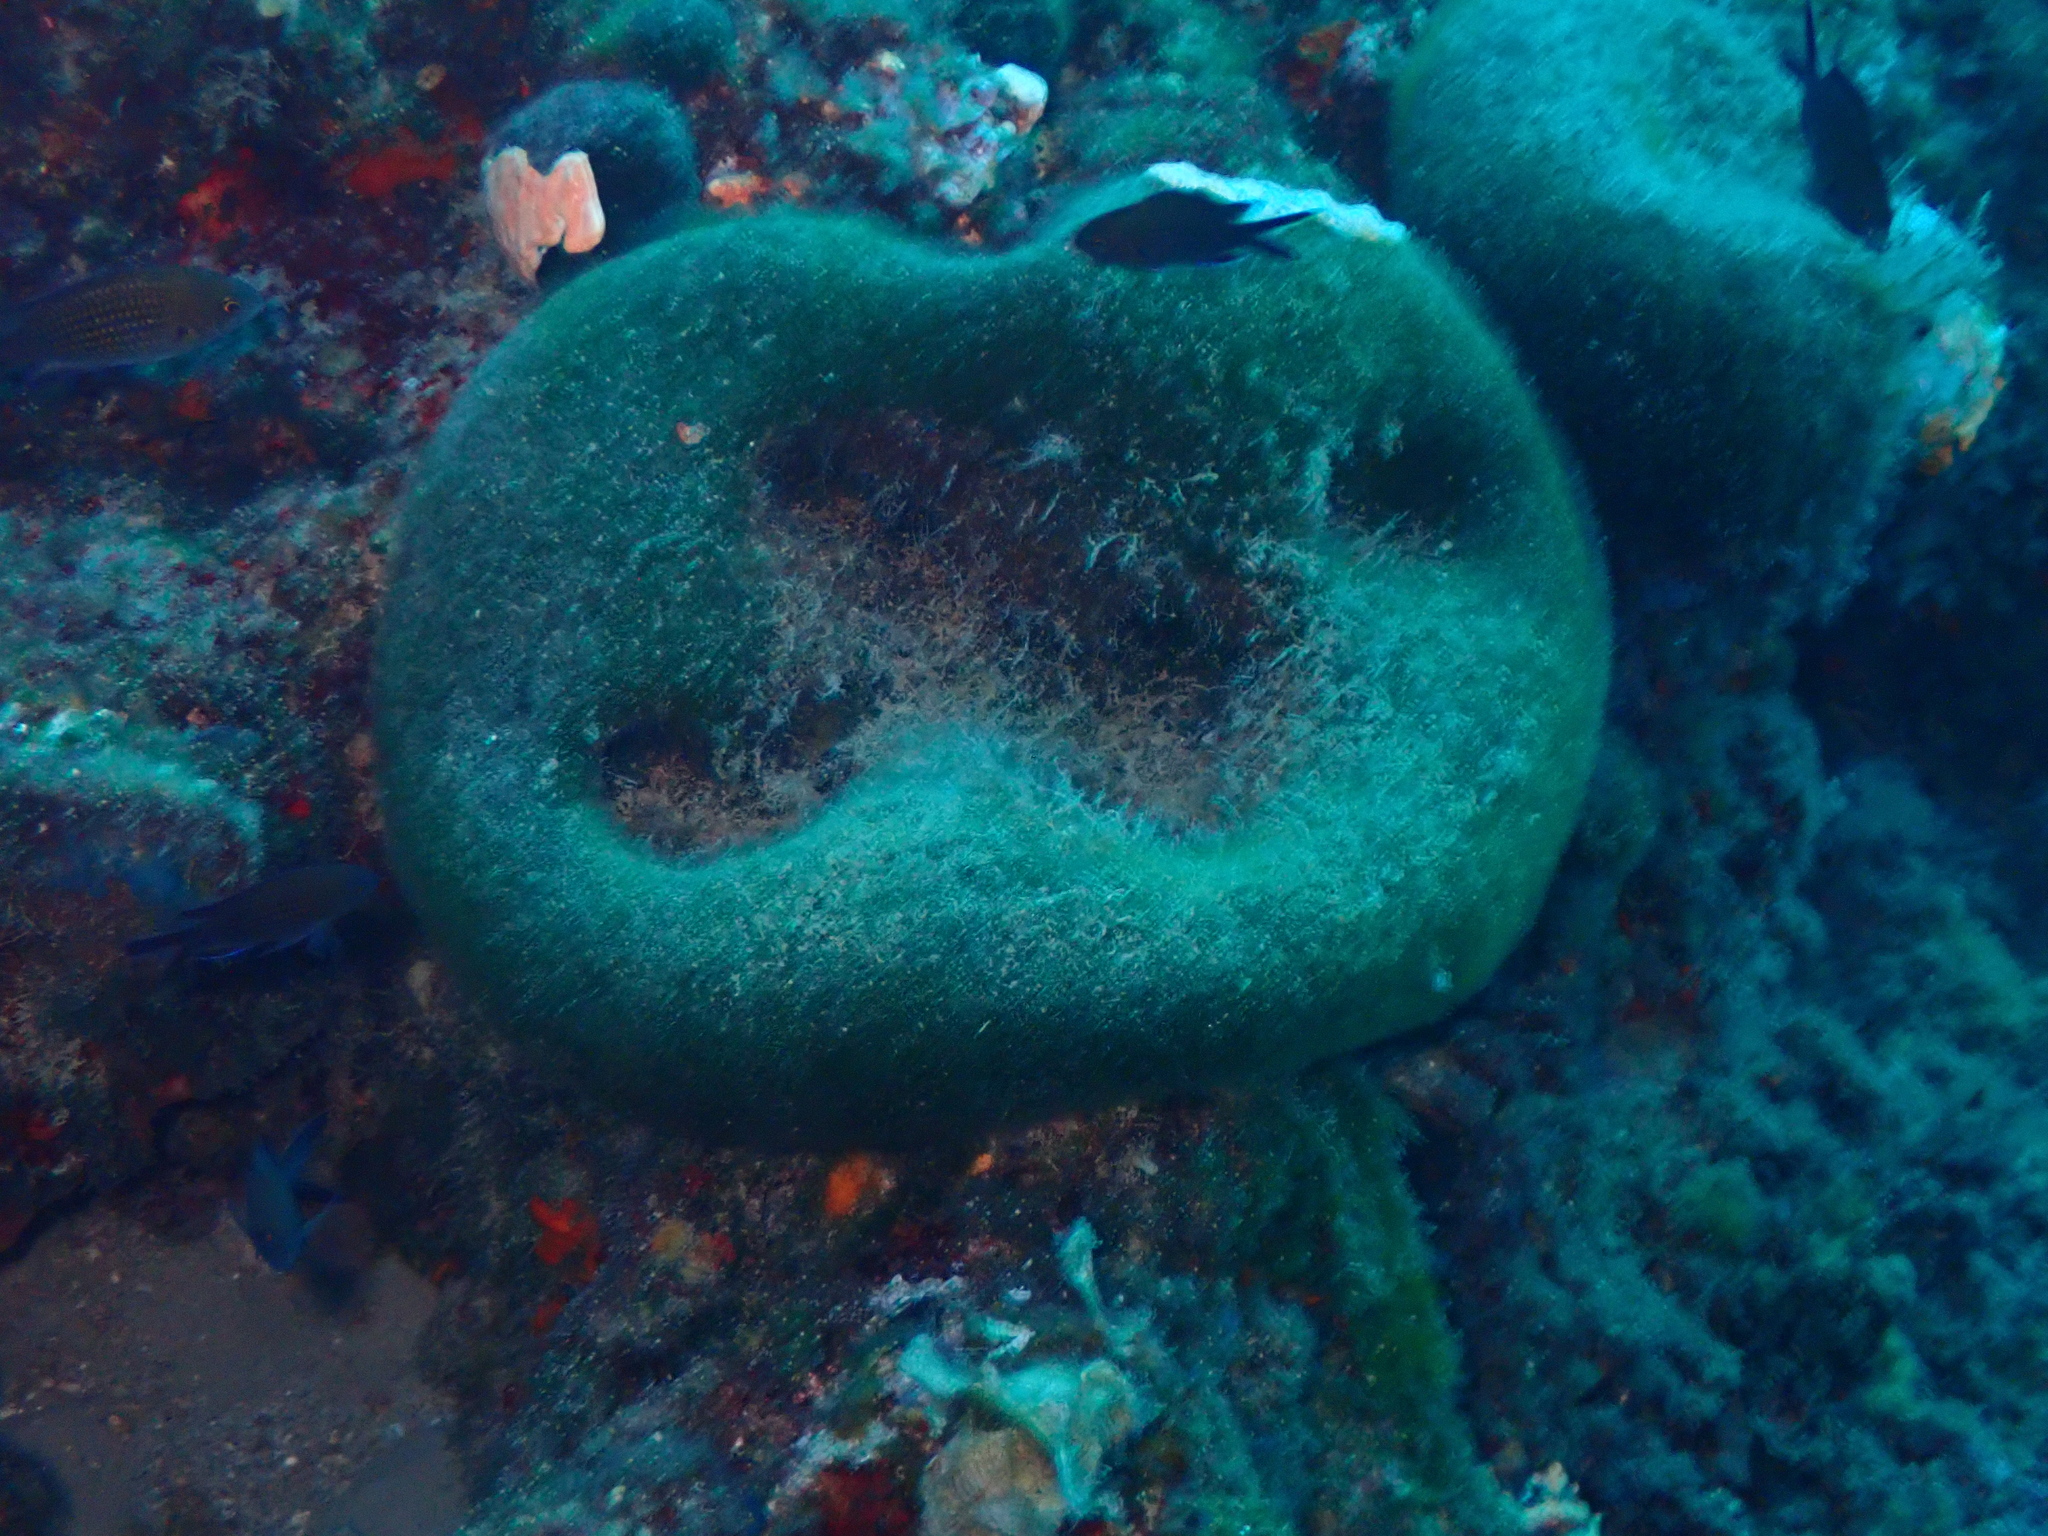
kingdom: Plantae
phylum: Chlorophyta
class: Ulvophyceae
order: Bryopsidales
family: Codiaceae
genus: Codium
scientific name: Codium bursa
